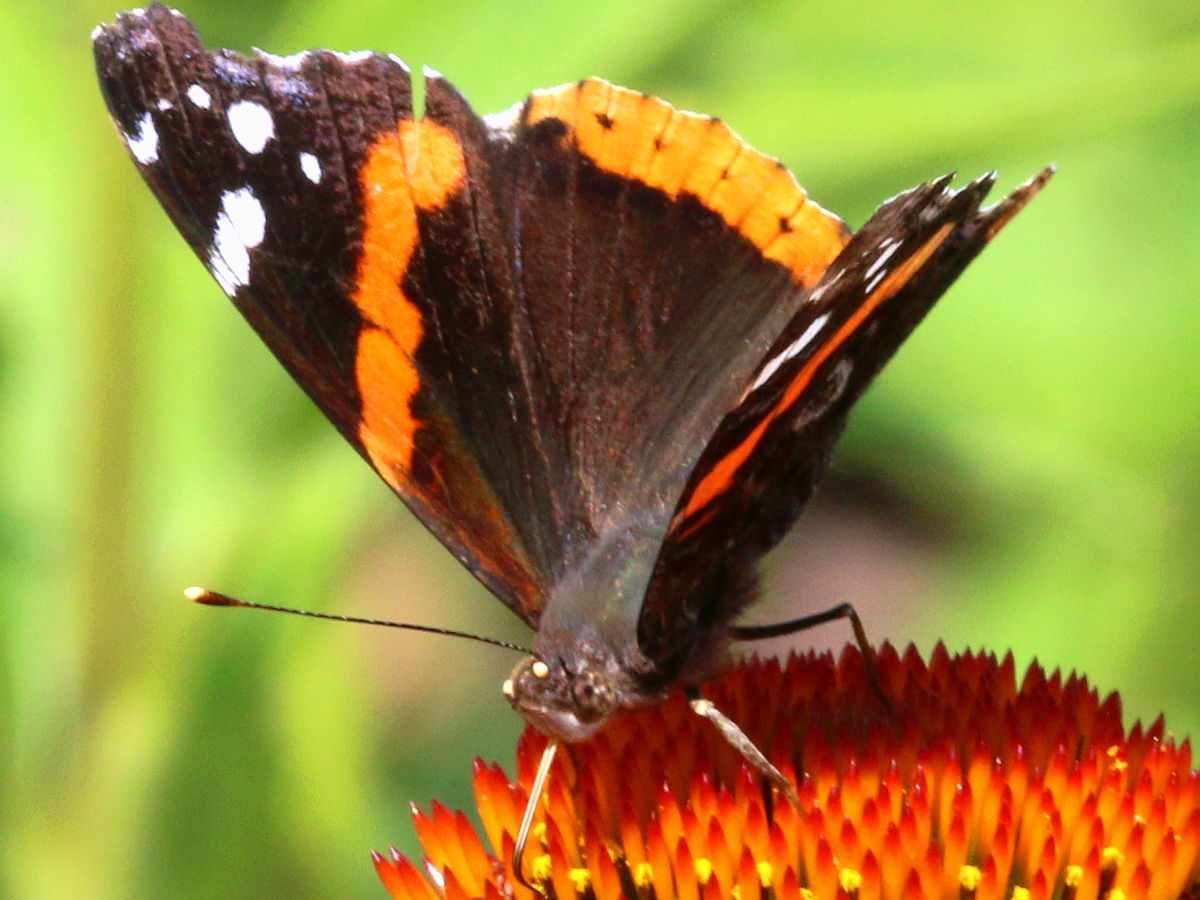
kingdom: Animalia
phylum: Arthropoda
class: Insecta
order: Lepidoptera
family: Nymphalidae
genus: Vanessa
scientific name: Vanessa atalanta
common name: Red admiral
